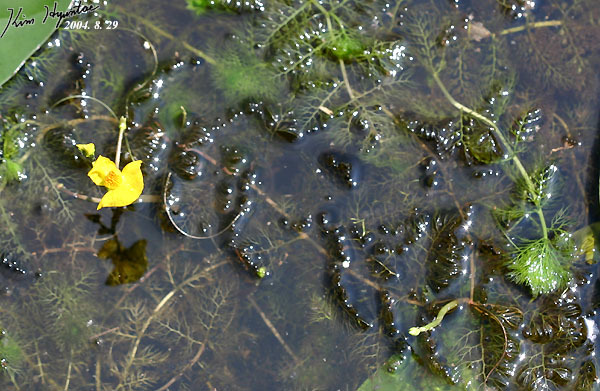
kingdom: Plantae
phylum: Tracheophyta
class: Magnoliopsida
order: Lamiales
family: Lentibulariaceae
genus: Utricularia
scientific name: Utricularia australis
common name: Bladderwort
